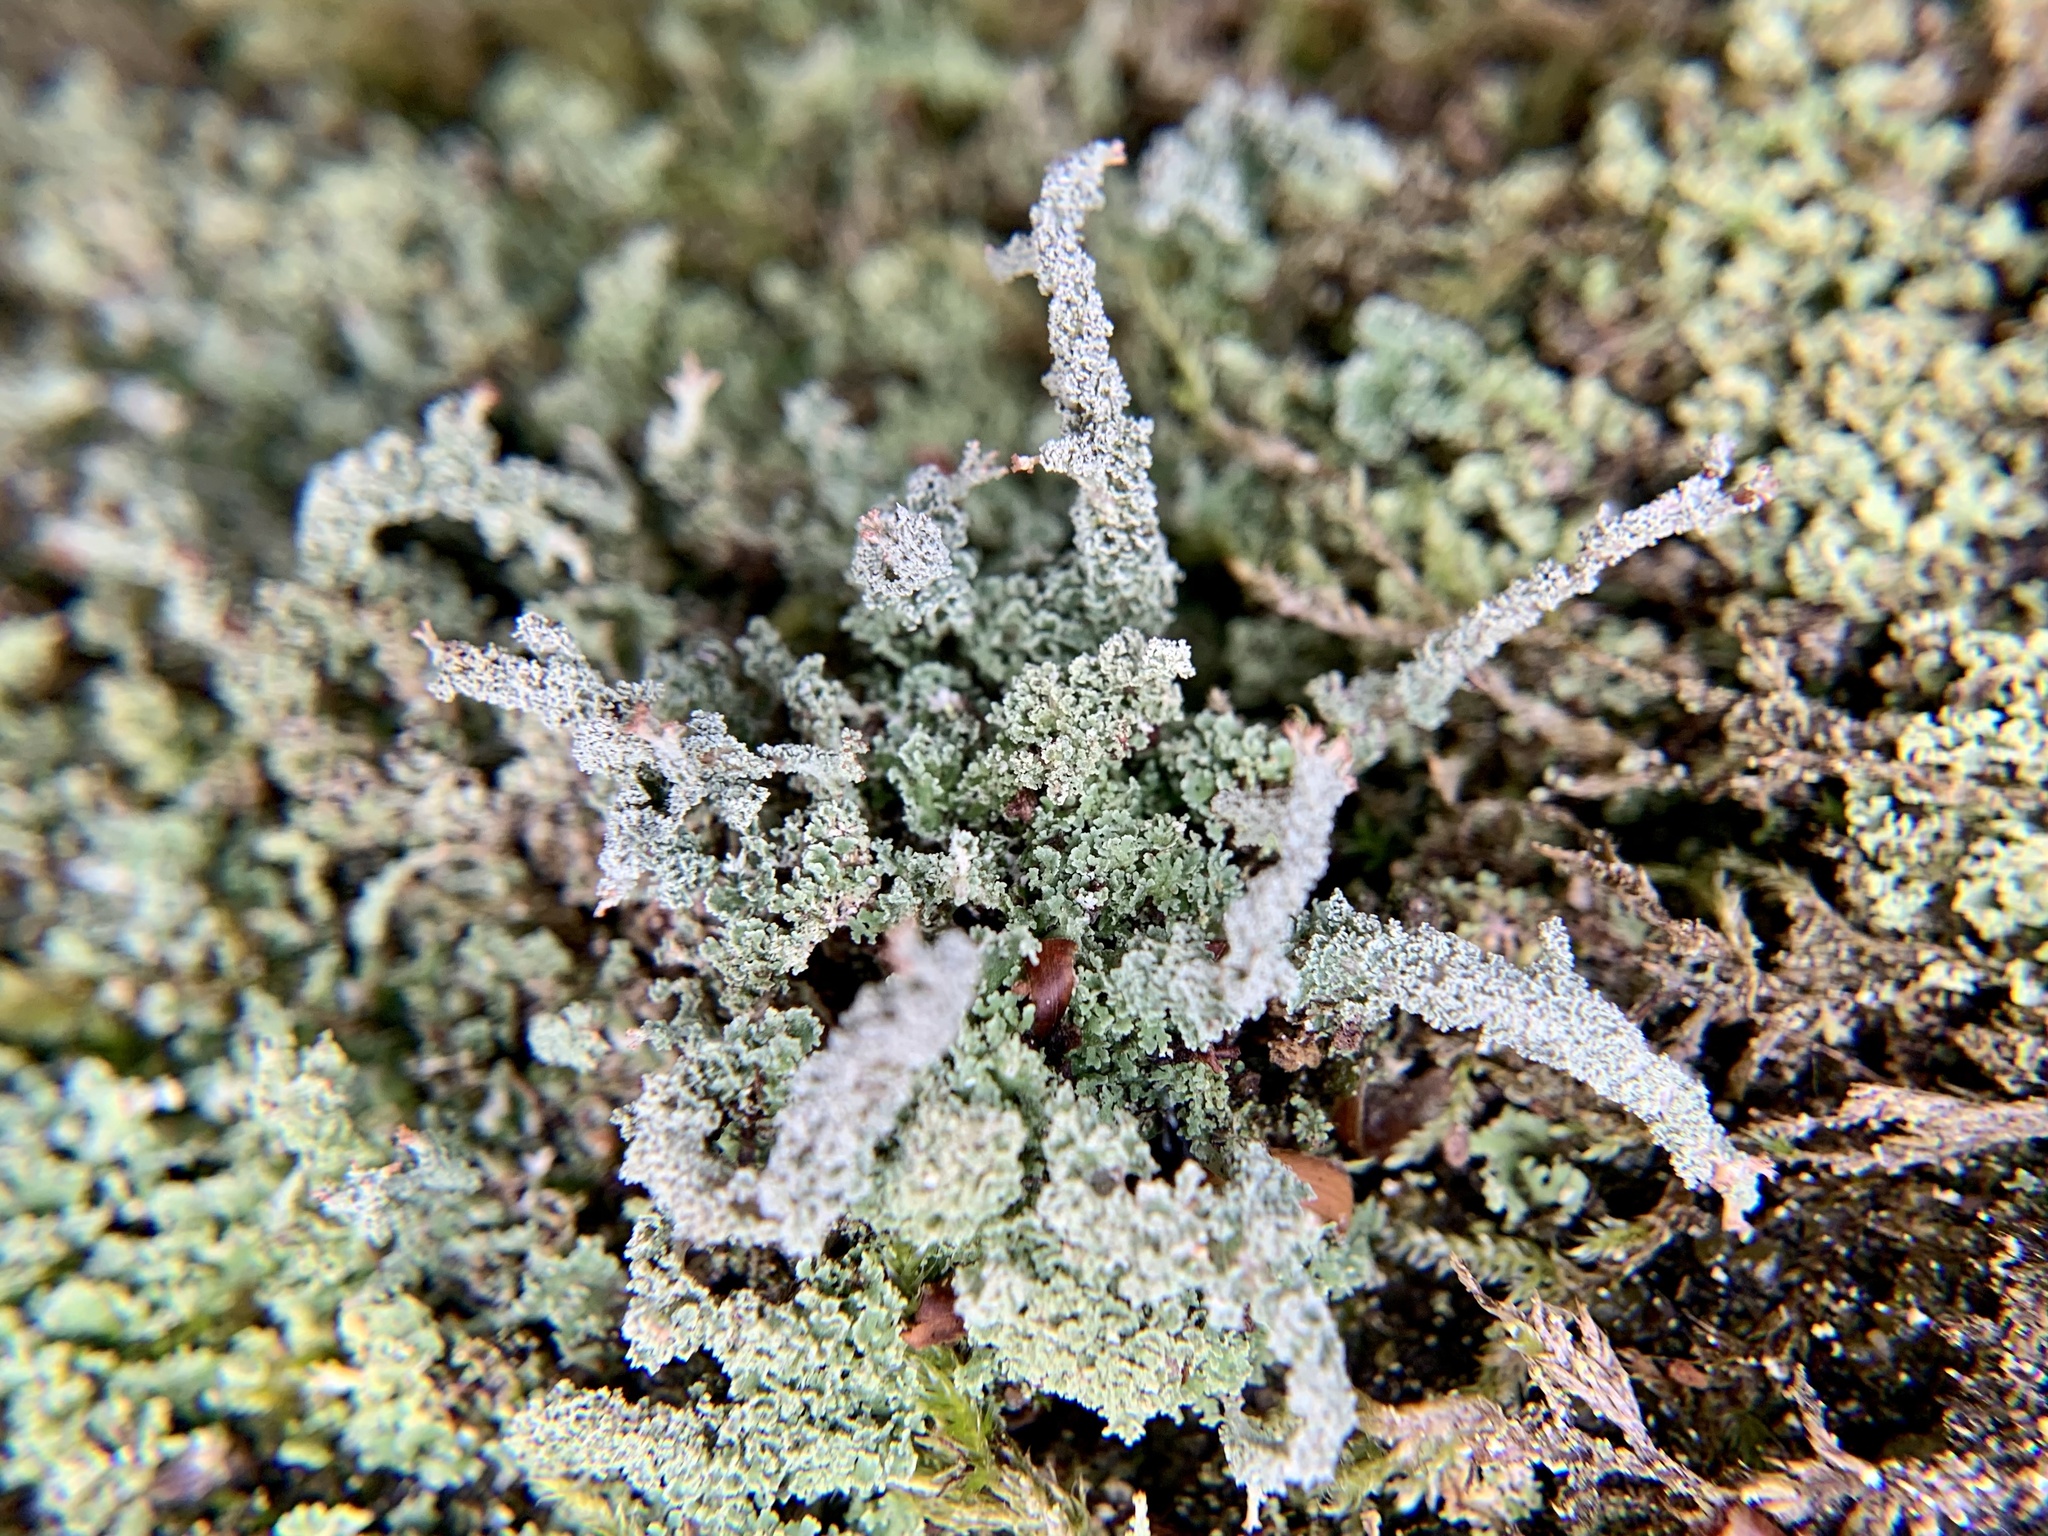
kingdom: Fungi
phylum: Ascomycota
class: Lecanoromycetes
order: Lecanorales
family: Cladoniaceae
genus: Cladonia
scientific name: Cladonia squamosa
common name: Dragon horn
